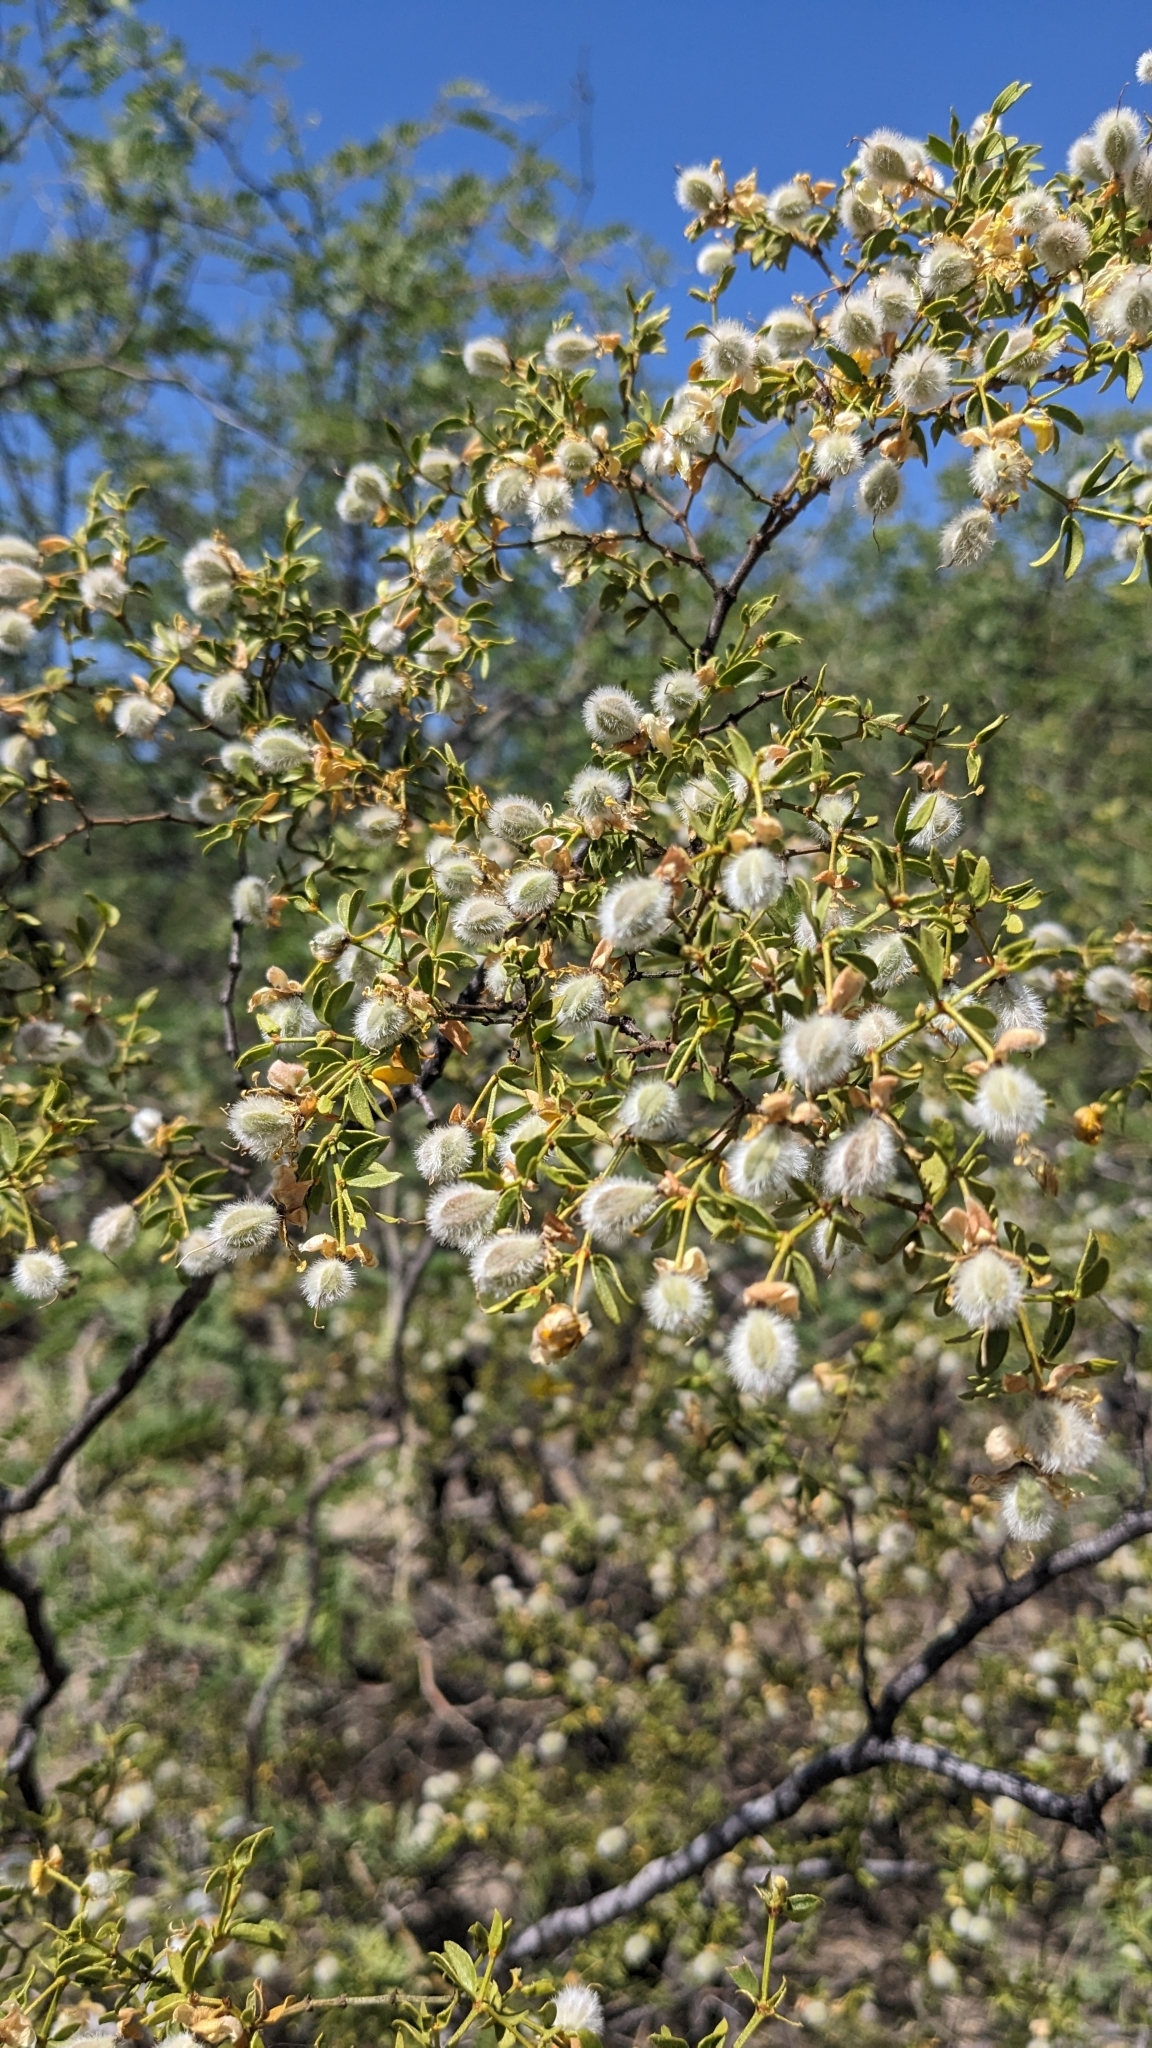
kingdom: Plantae
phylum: Tracheophyta
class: Magnoliopsida
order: Zygophyllales
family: Zygophyllaceae
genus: Larrea
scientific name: Larrea tridentata
